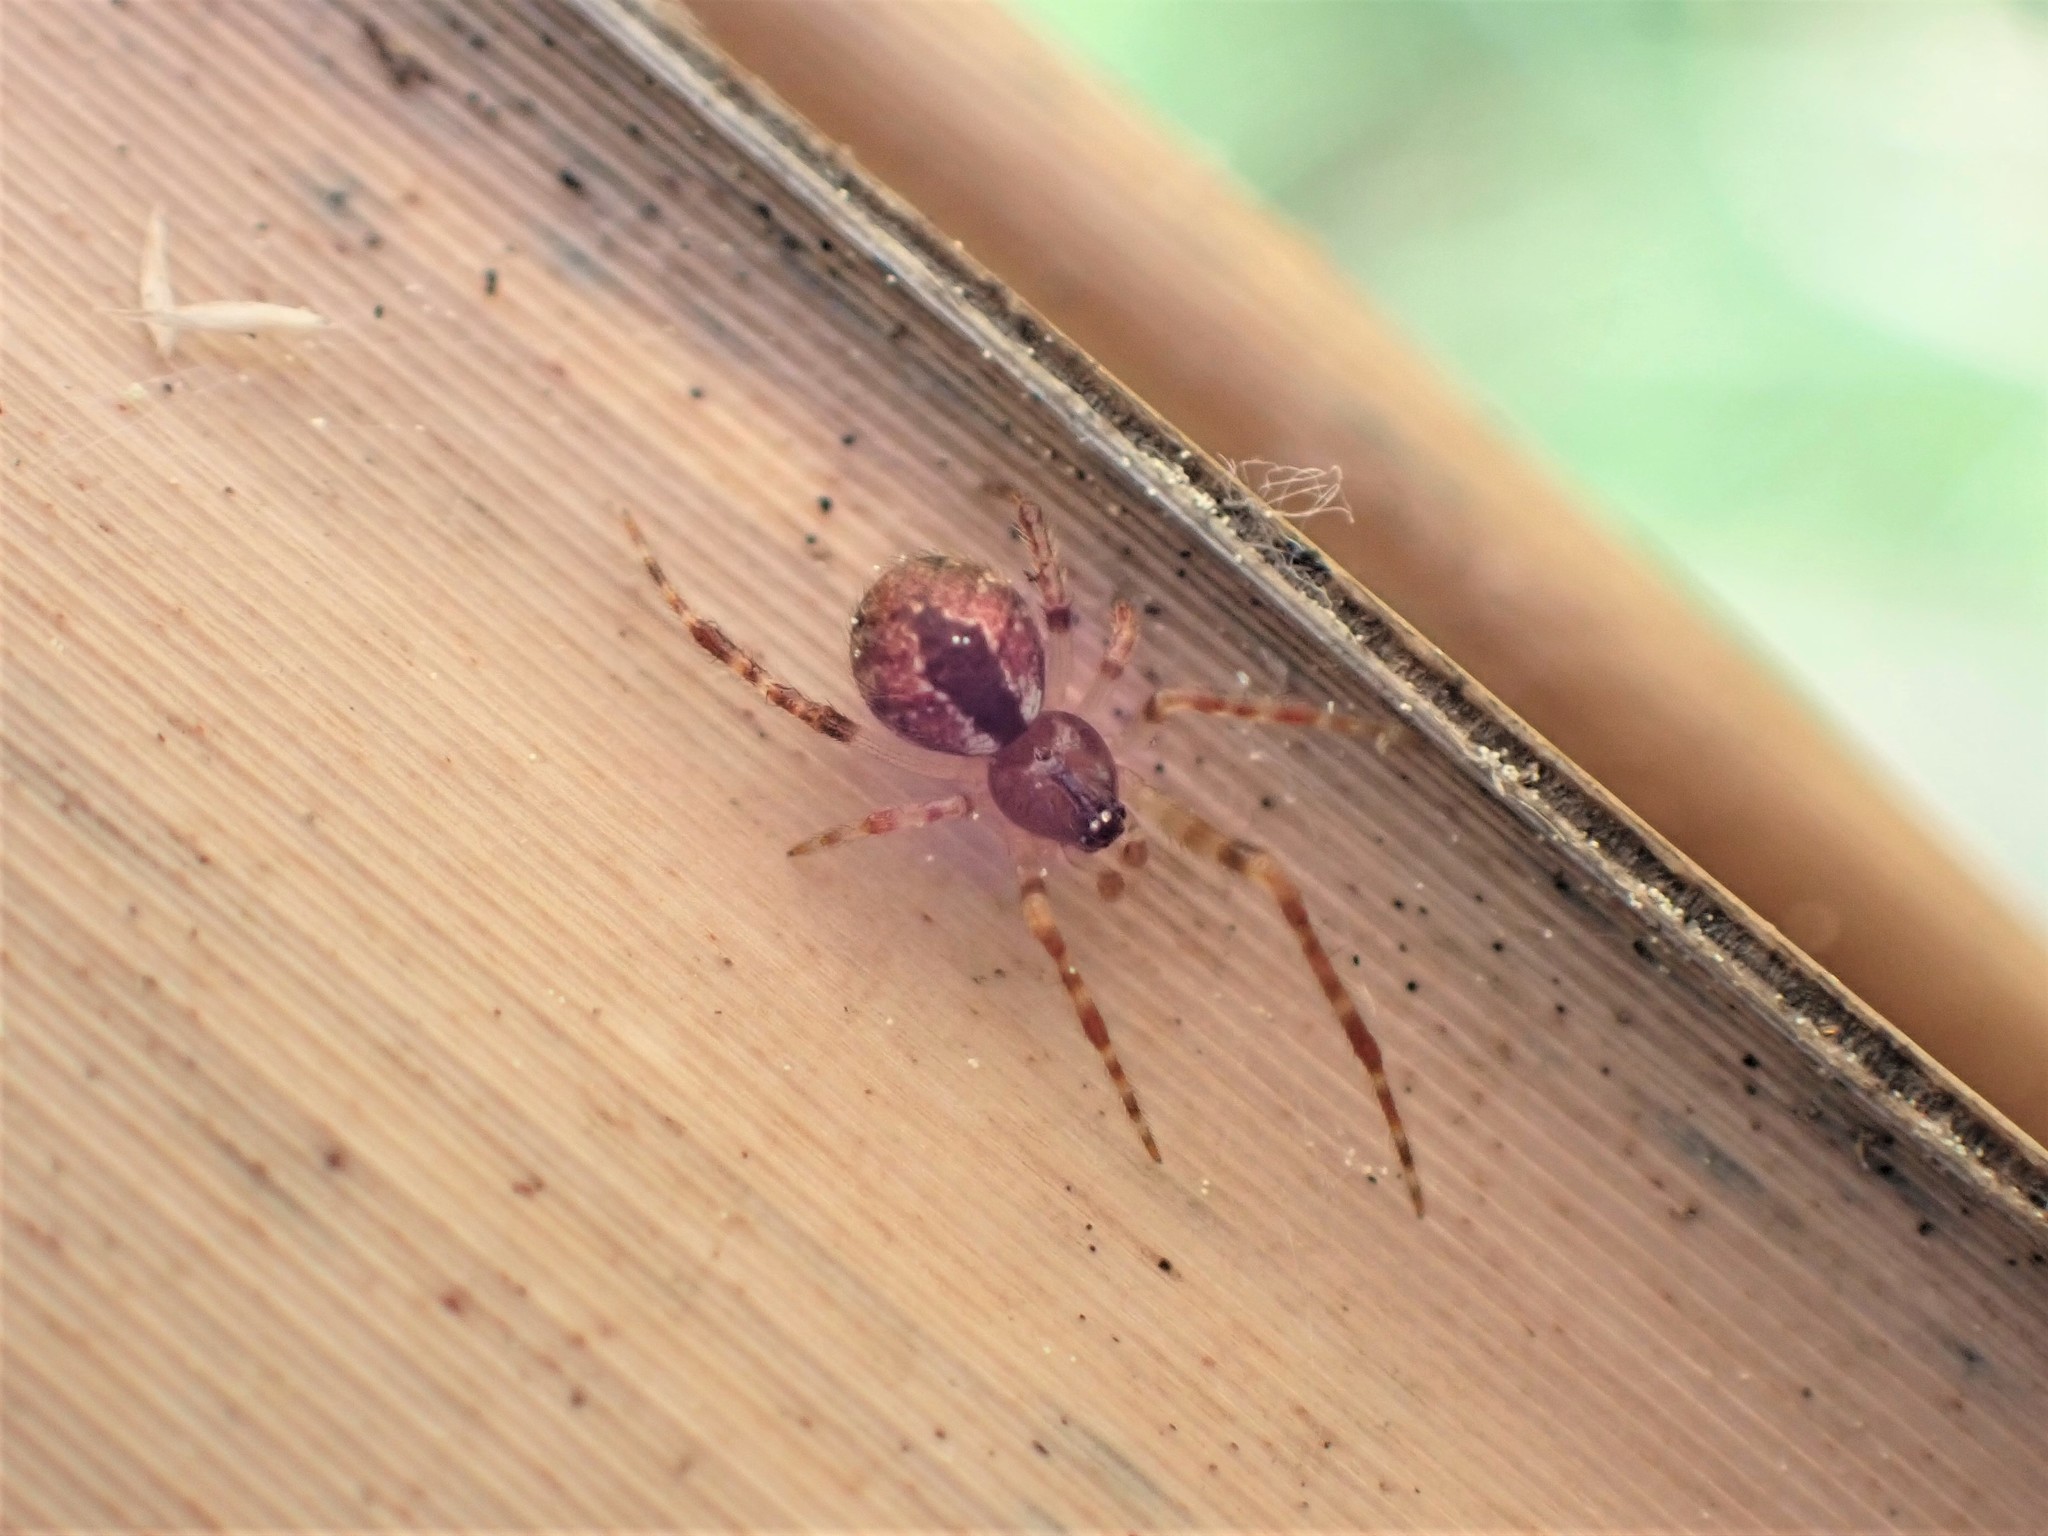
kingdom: Animalia
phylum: Arthropoda
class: Arachnida
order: Araneae
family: Theridiidae
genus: Cryptachaea
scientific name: Cryptachaea veruculata
